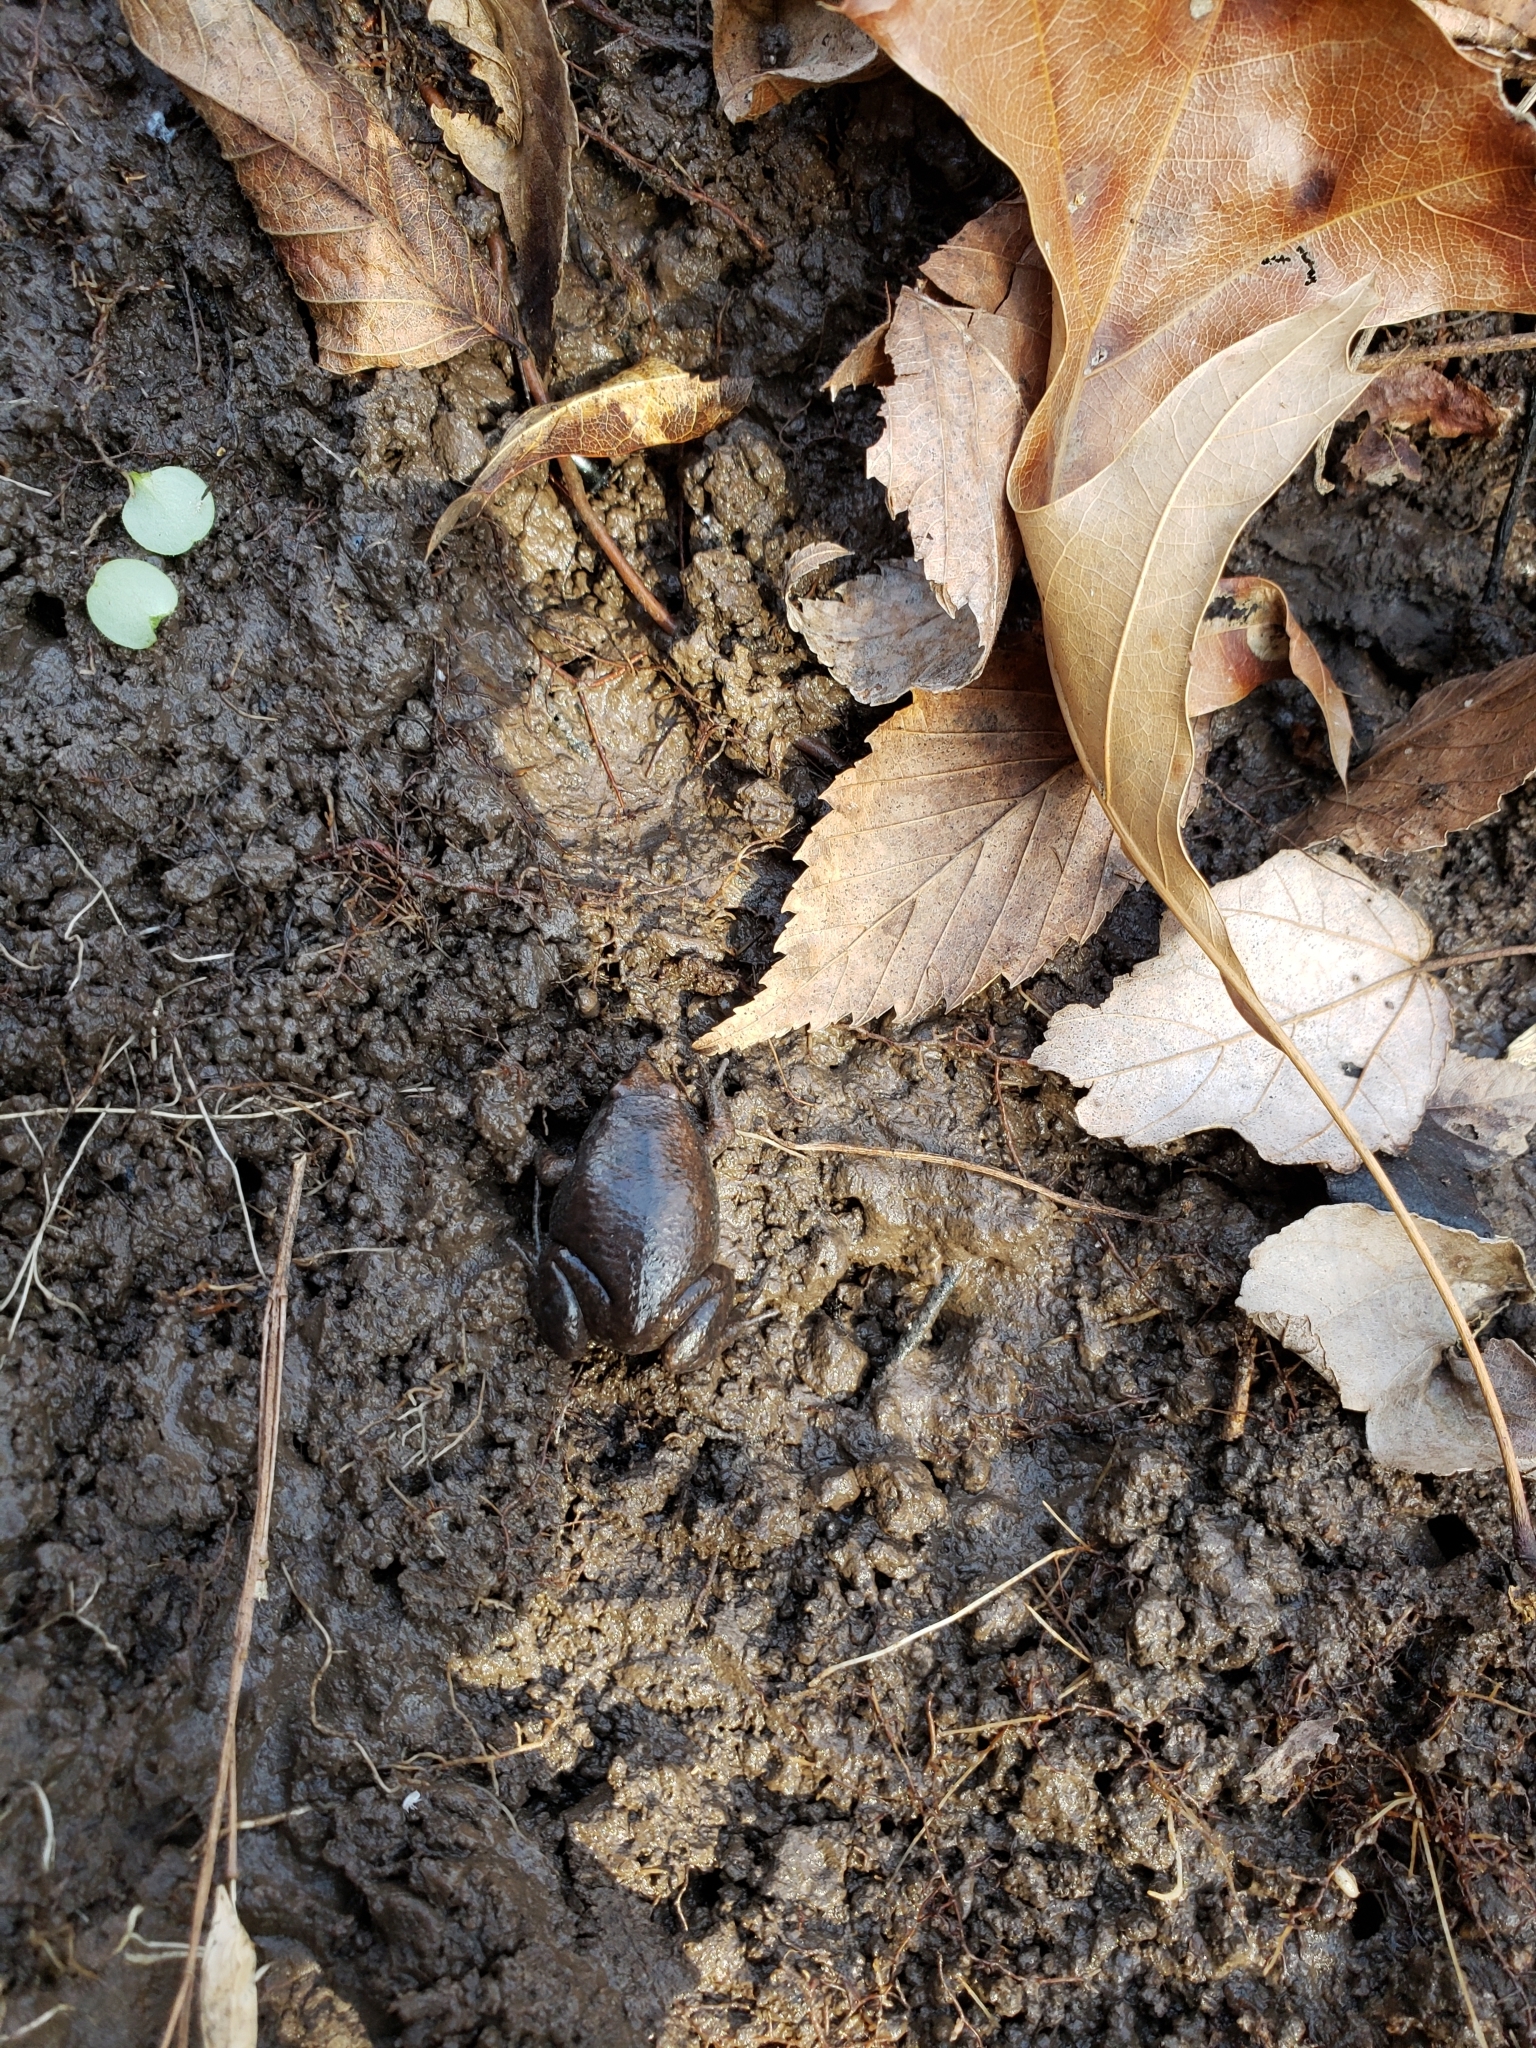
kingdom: Animalia
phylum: Chordata
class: Amphibia
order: Anura
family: Microhylidae
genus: Gastrophryne
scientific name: Gastrophryne carolinensis
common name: Eastern narrowmouth toad
